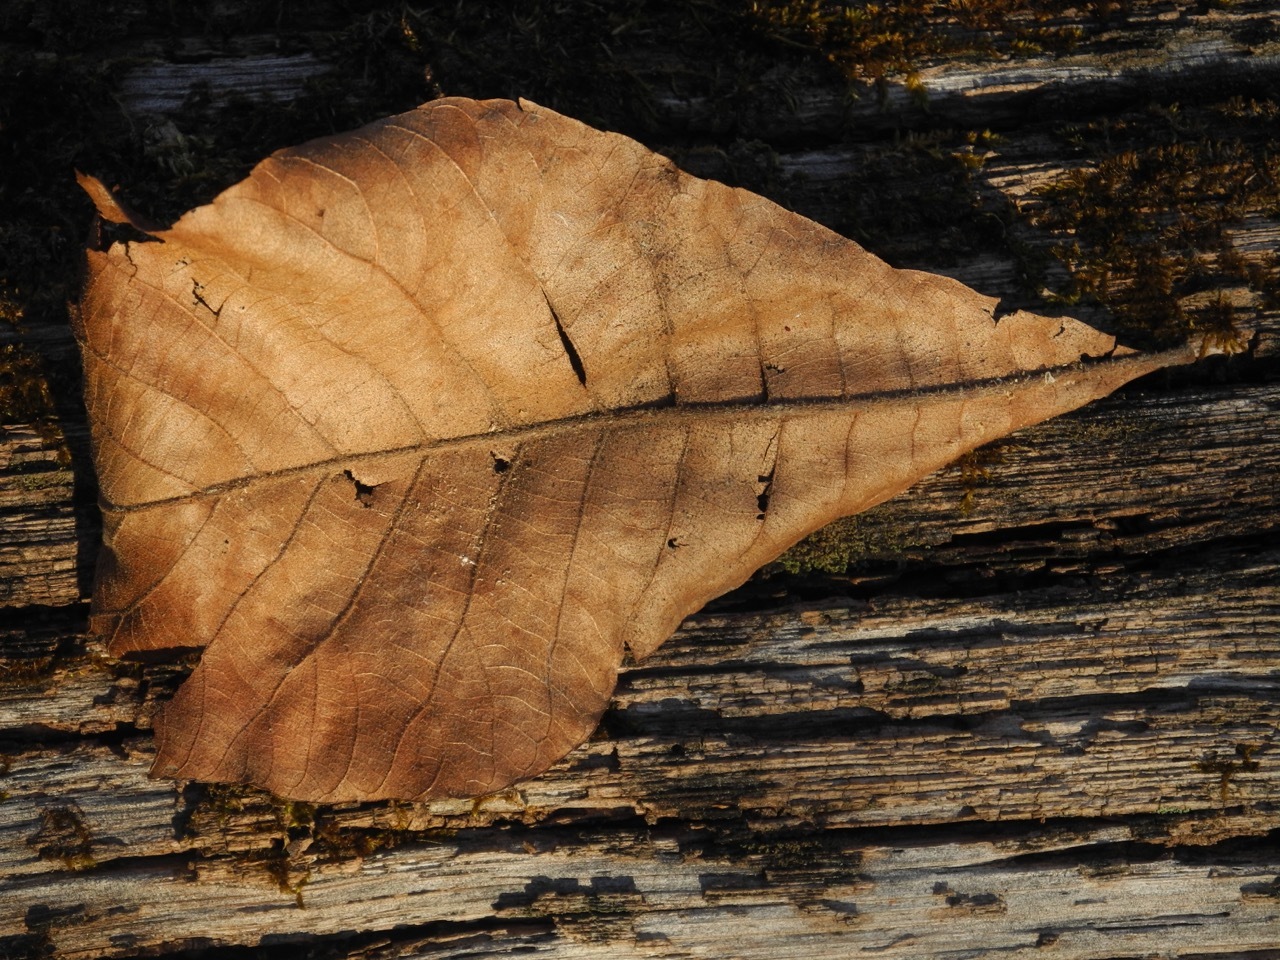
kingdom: Plantae
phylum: Tracheophyta
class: Magnoliopsida
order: Fagales
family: Juglandaceae
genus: Carya
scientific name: Carya alba
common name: Mockernut hickory
